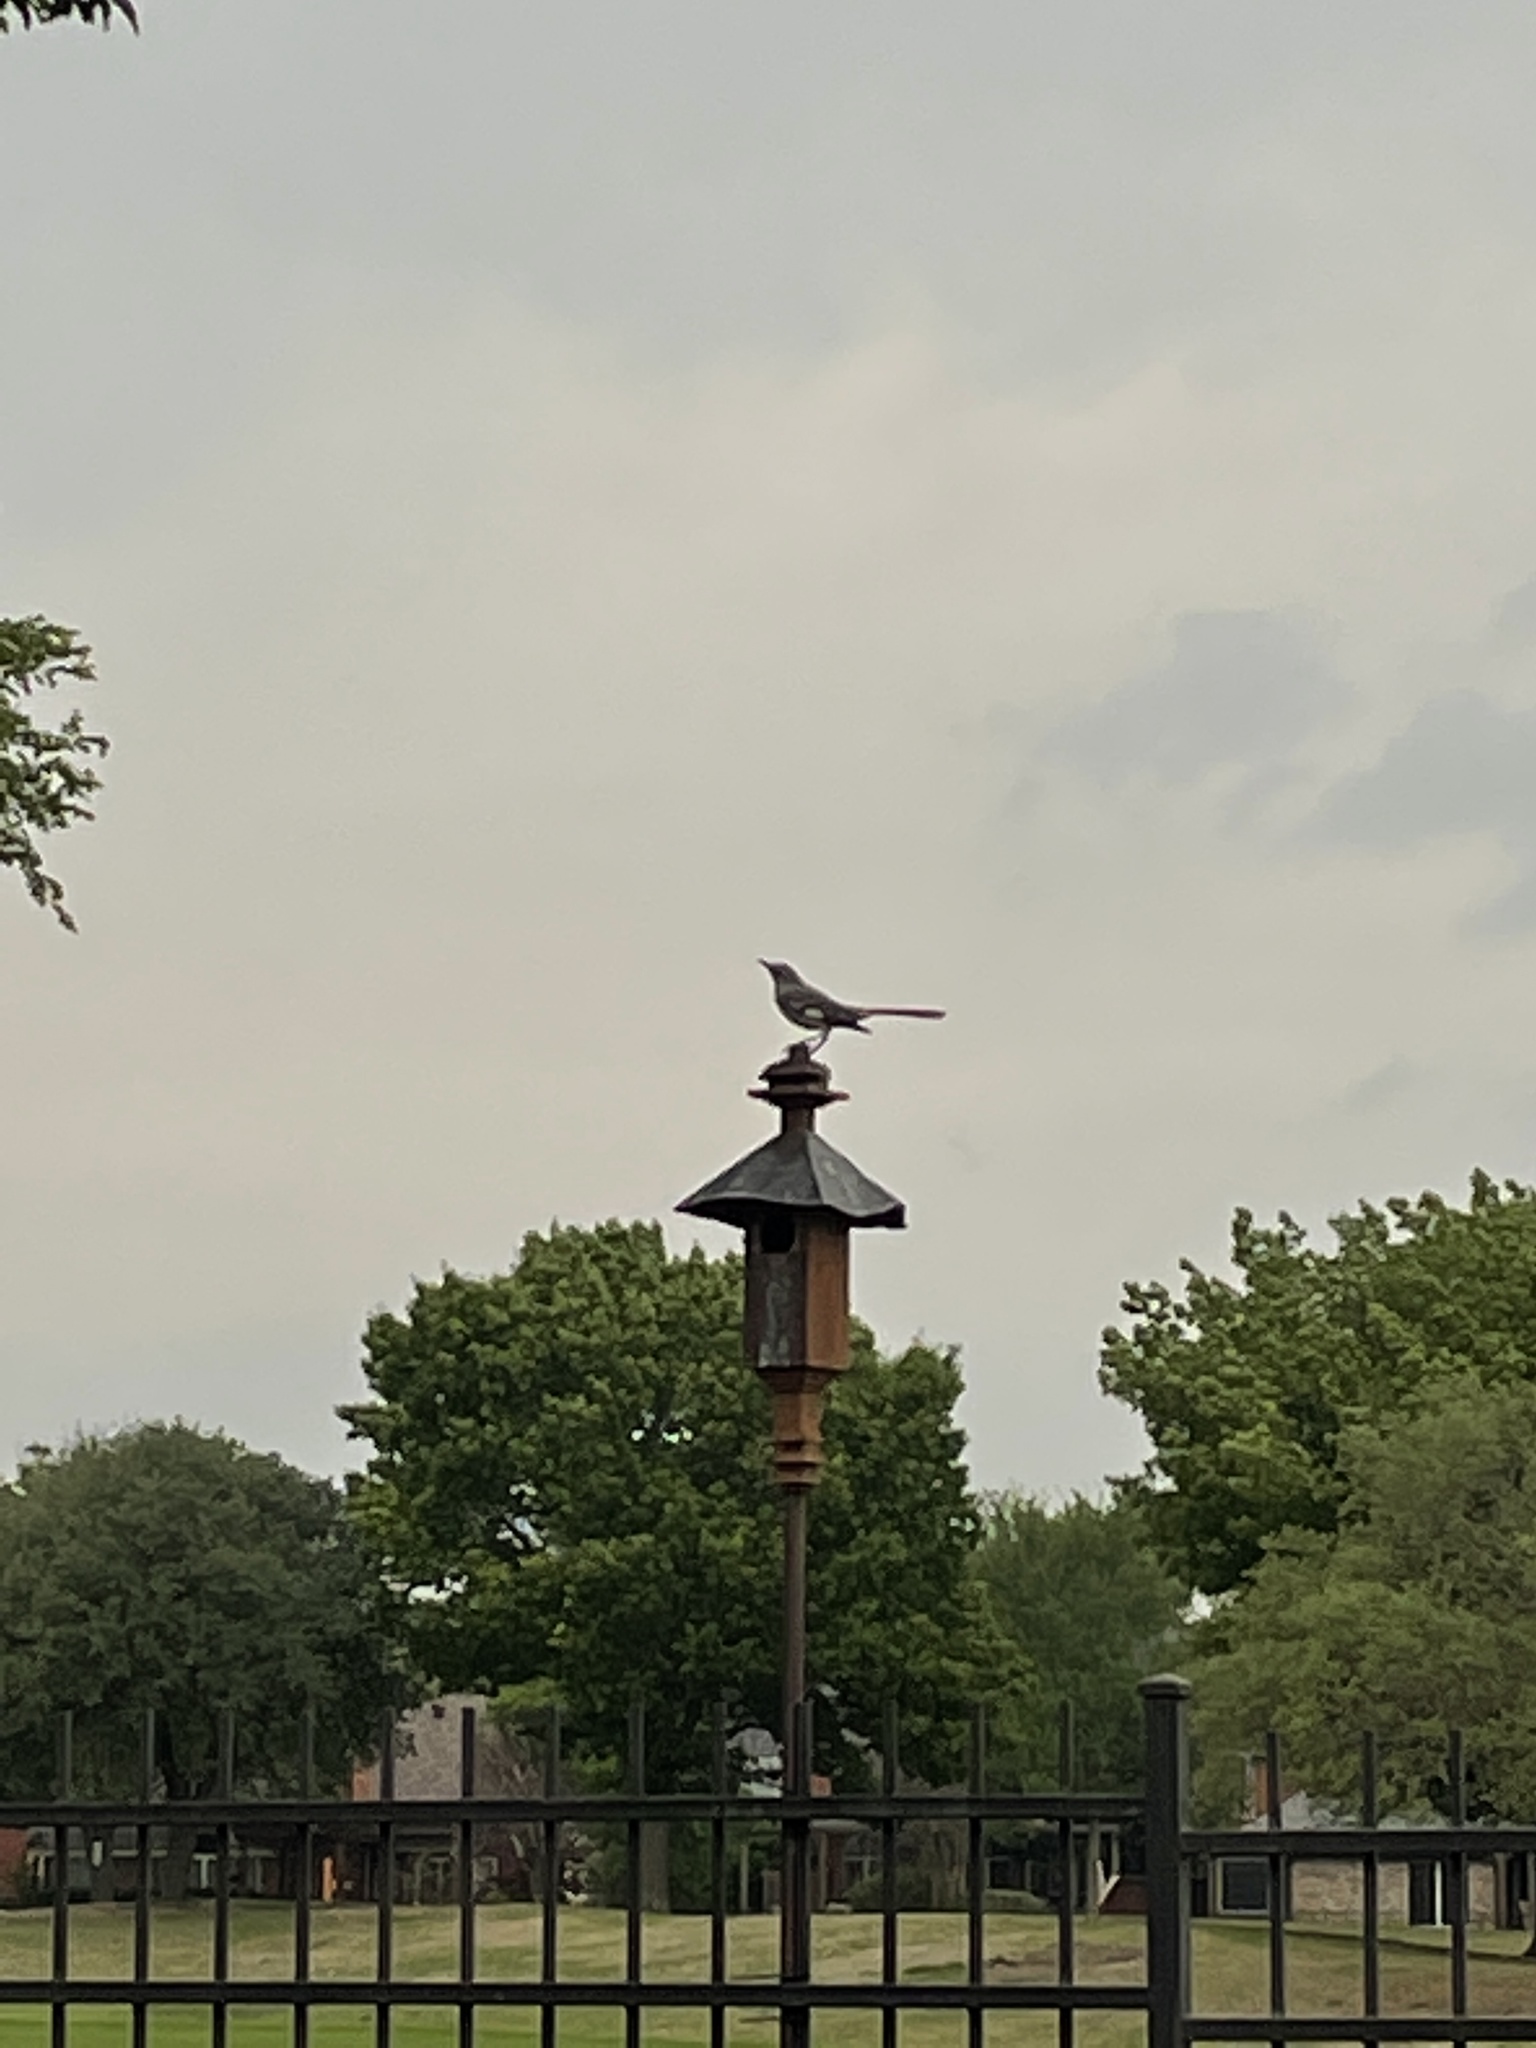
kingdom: Animalia
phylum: Chordata
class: Aves
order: Passeriformes
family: Mimidae
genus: Mimus
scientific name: Mimus polyglottos
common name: Northern mockingbird
